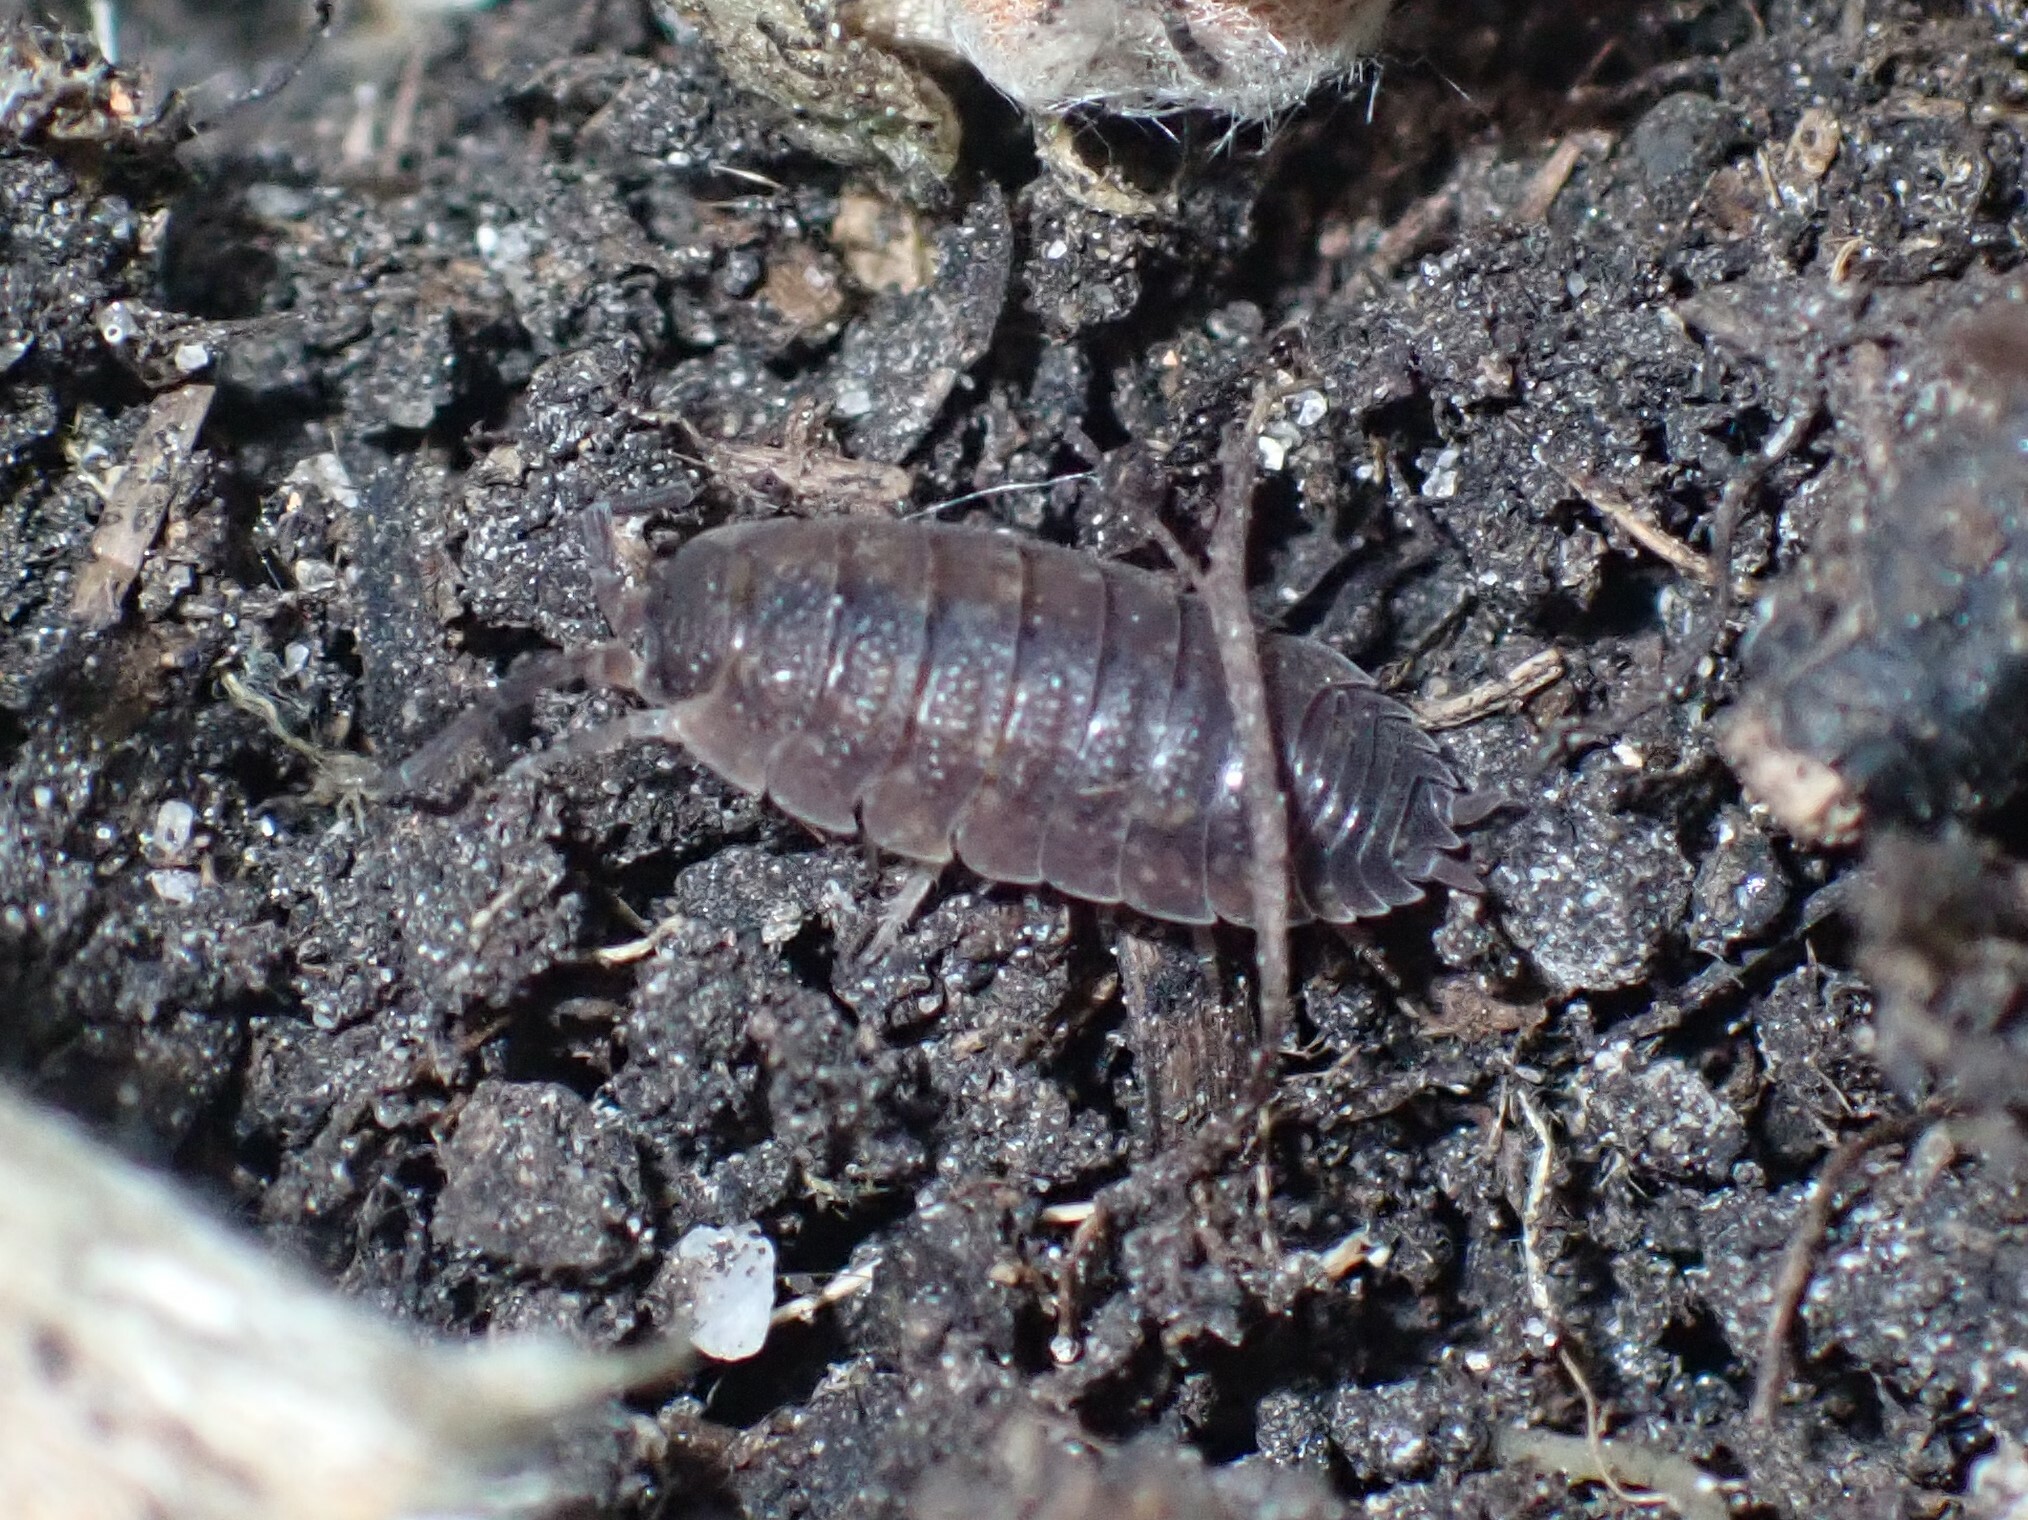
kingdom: Animalia
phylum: Arthropoda
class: Malacostraca
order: Isopoda
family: Porcellionidae
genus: Porcellio
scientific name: Porcellio scaber
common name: Common rough woodlouse
